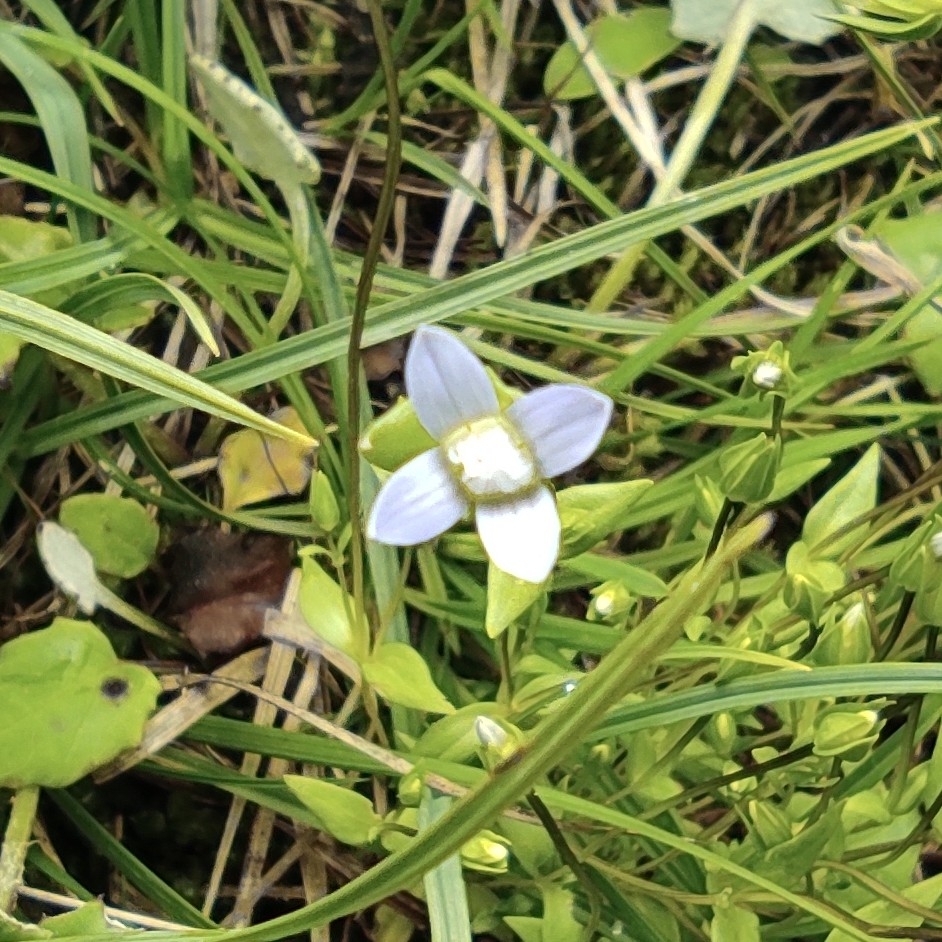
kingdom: Plantae
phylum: Tracheophyta
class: Magnoliopsida
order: Gentianales
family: Gentianaceae
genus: Comastoma
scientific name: Comastoma tenellum
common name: Dane's dwarf gentian
